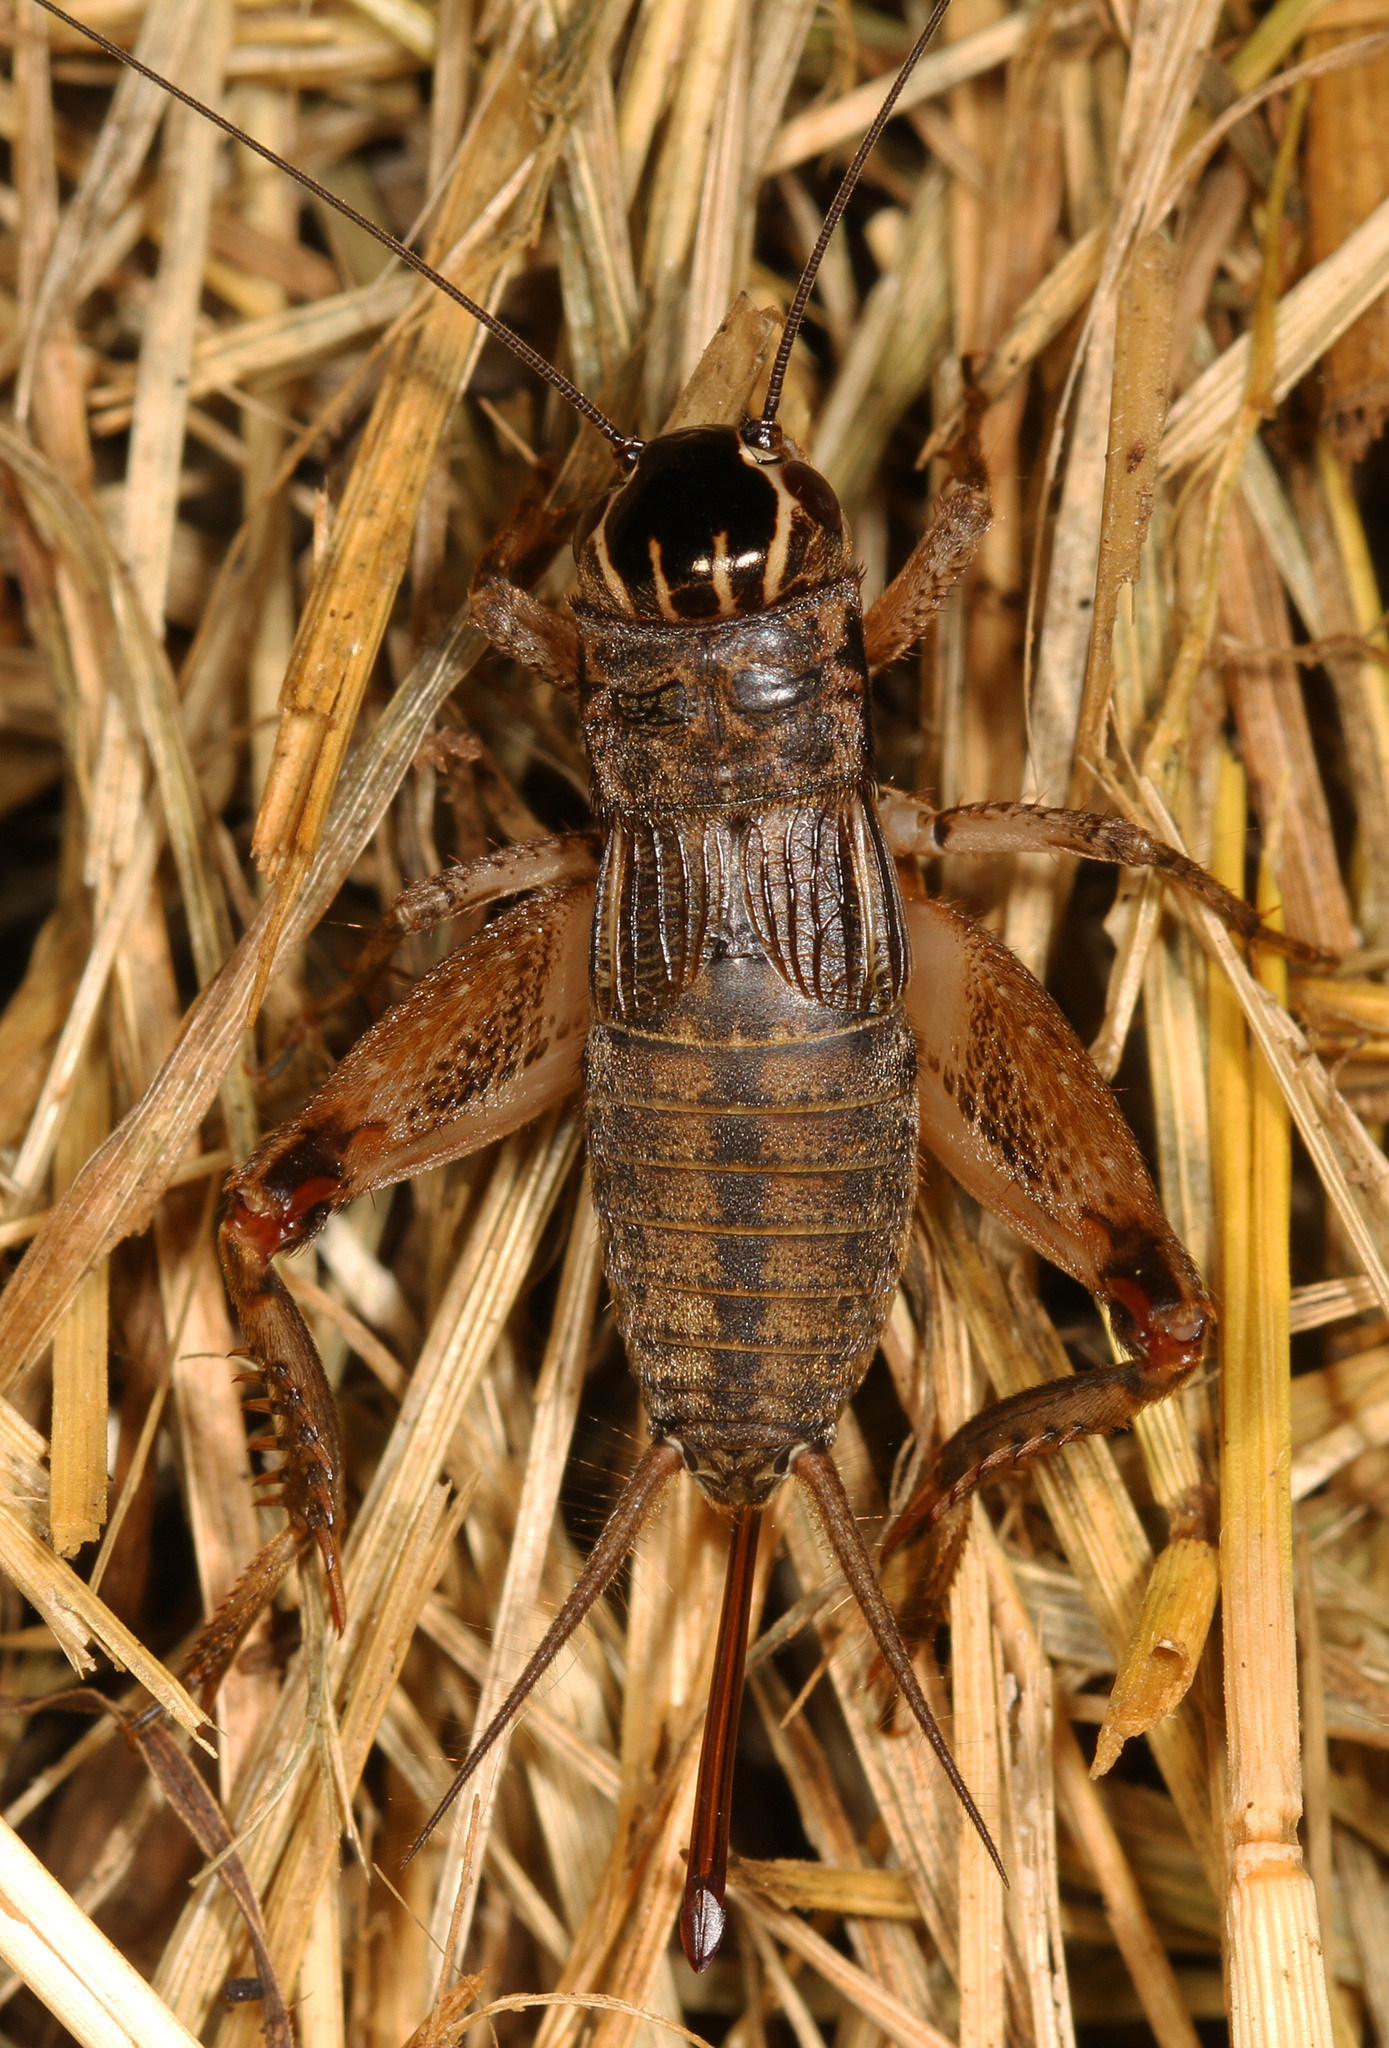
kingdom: Animalia
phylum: Arthropoda
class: Insecta
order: Orthoptera
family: Gryllidae
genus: Miogryllus
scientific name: Miogryllus verticalis
